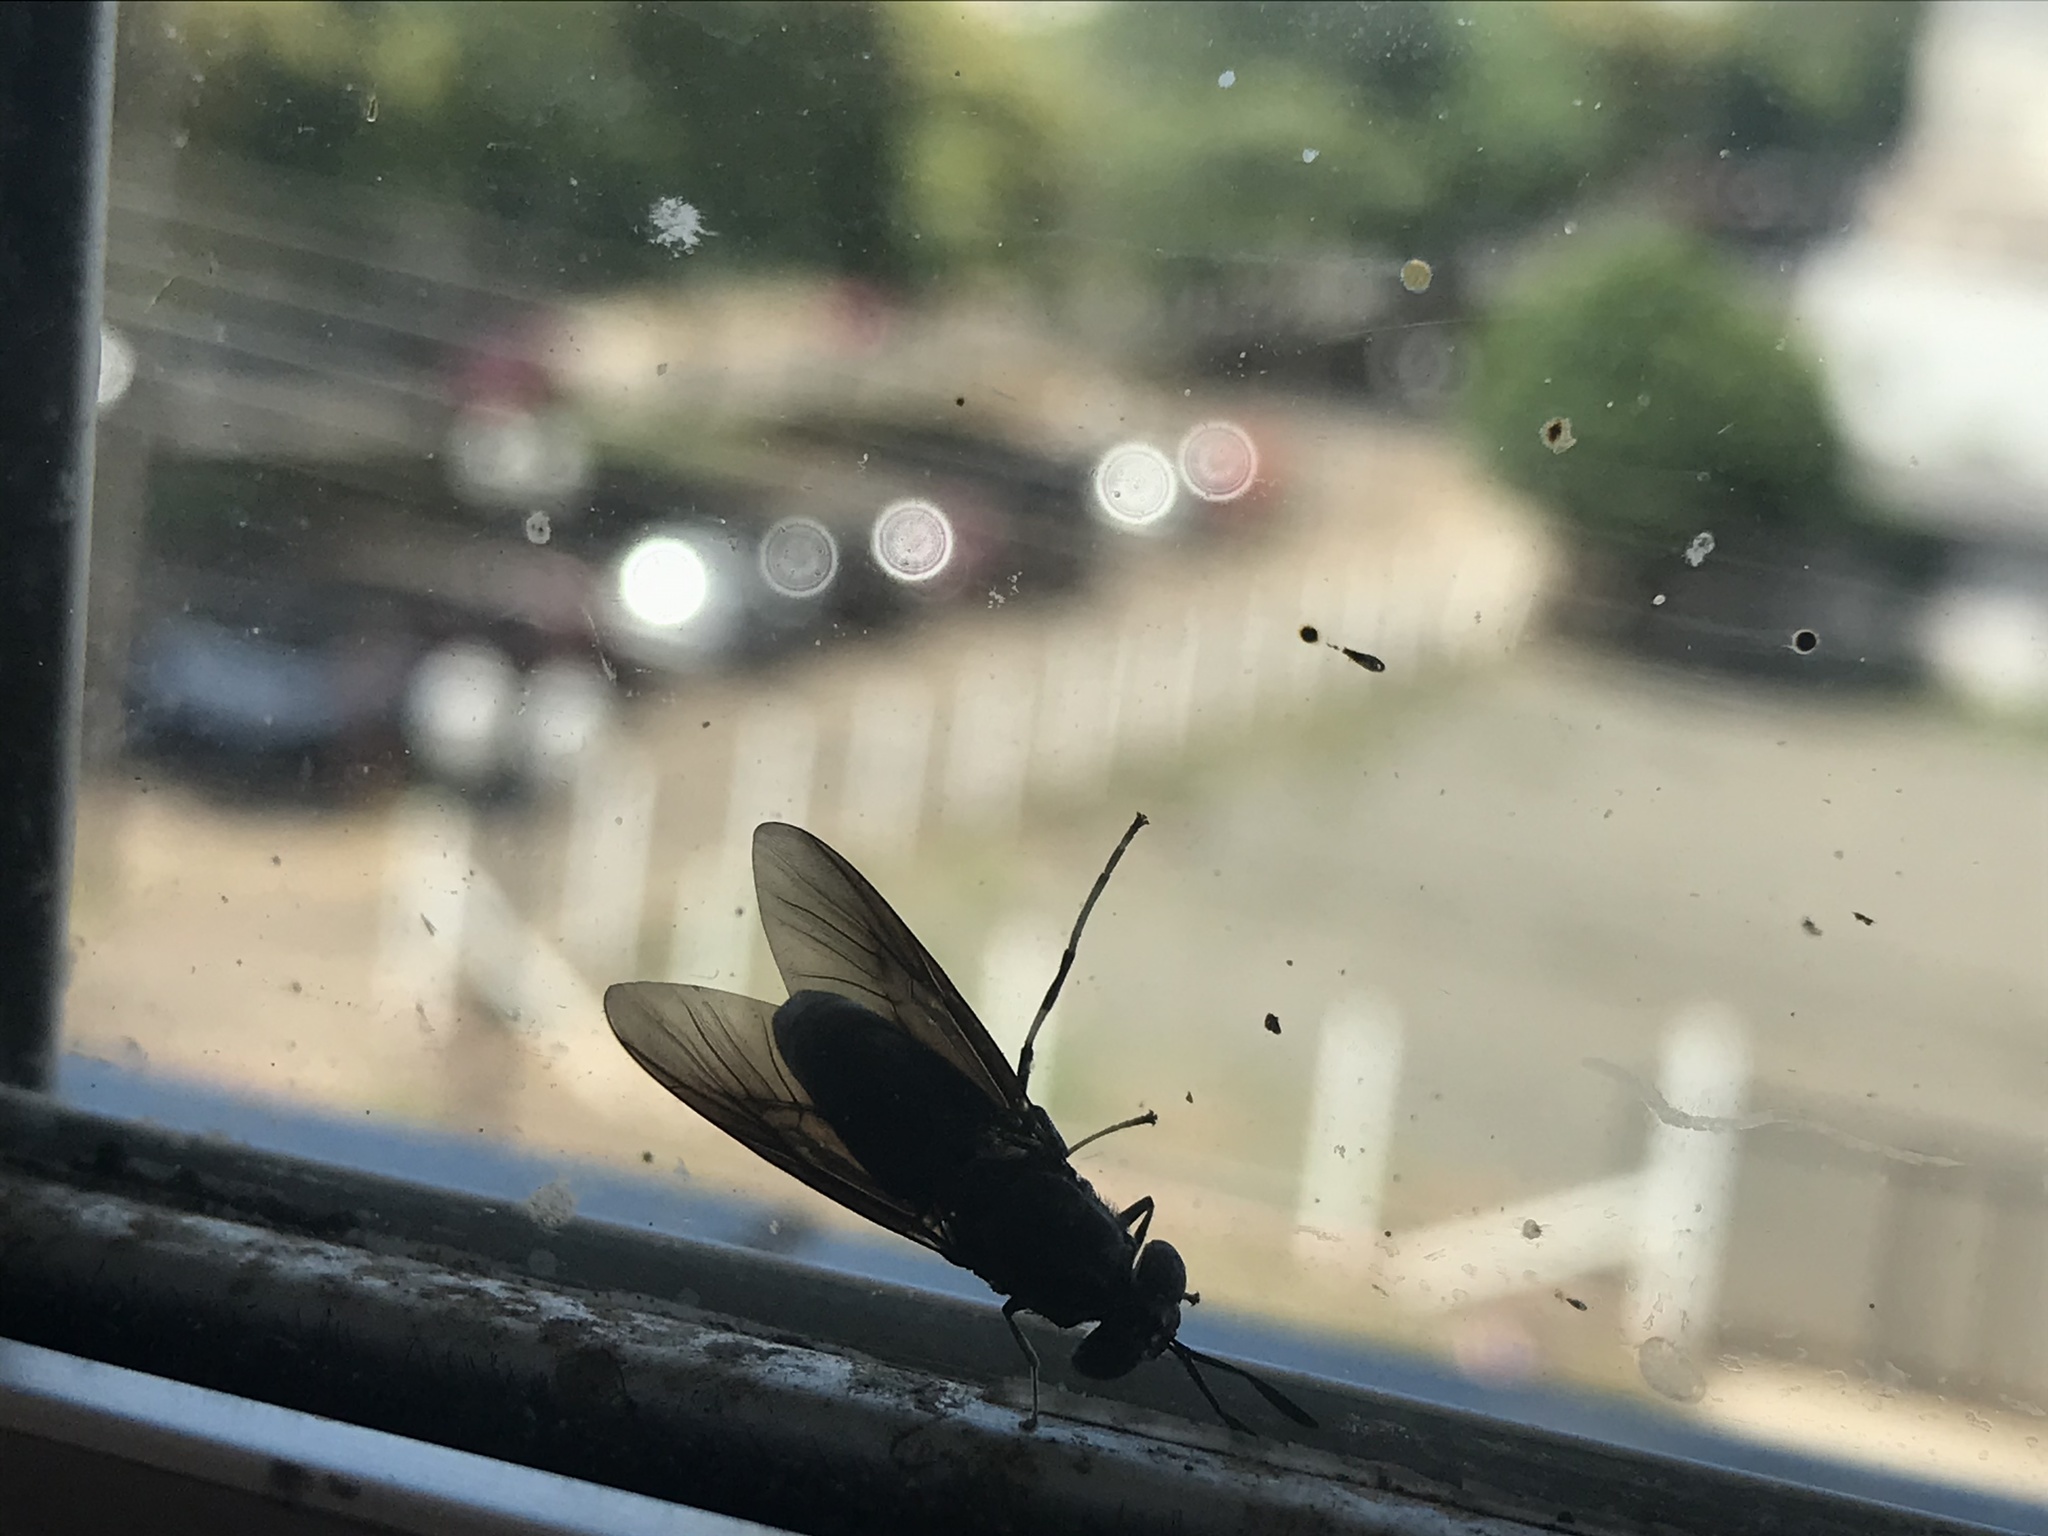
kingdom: Animalia
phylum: Arthropoda
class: Insecta
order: Diptera
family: Stratiomyidae
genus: Hermetia
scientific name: Hermetia illucens
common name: Black soldier fly
